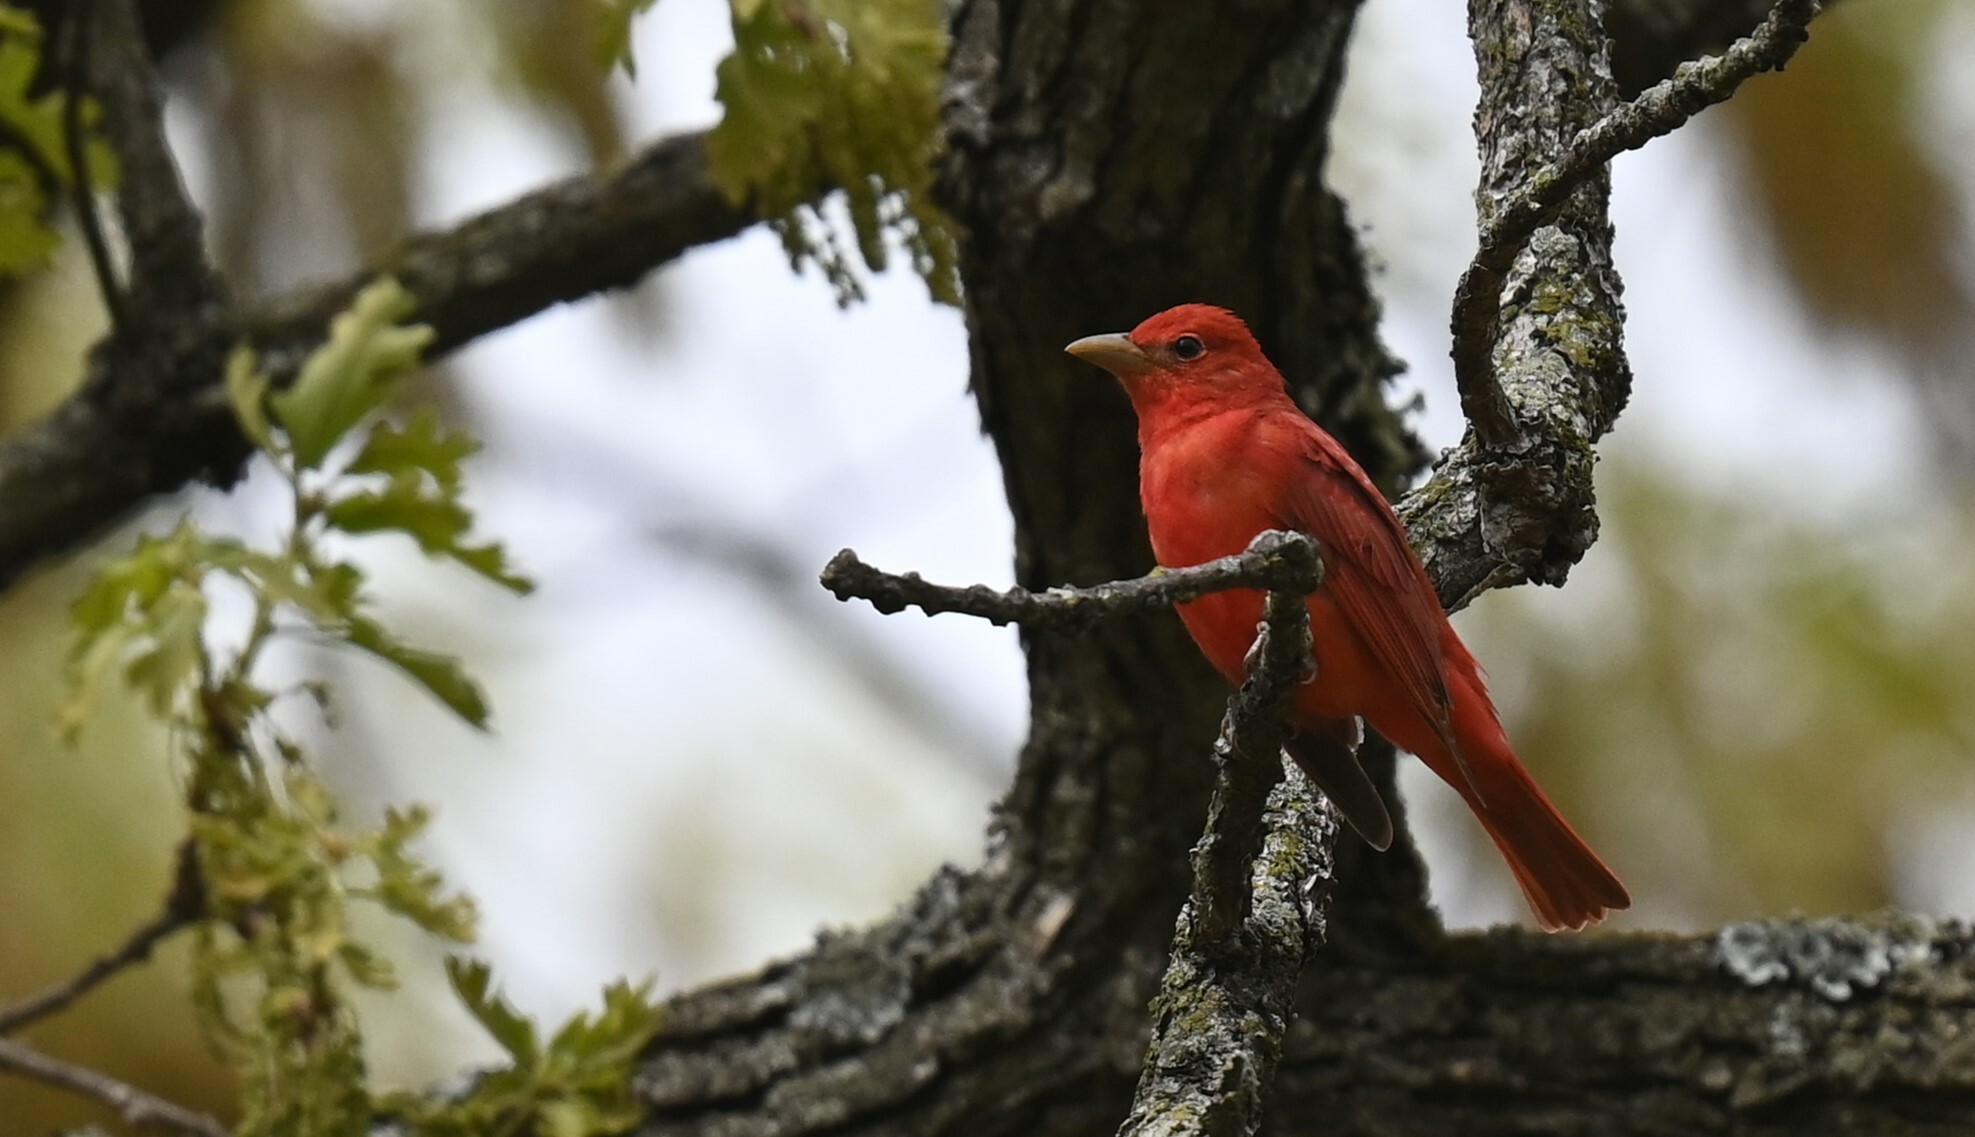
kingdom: Animalia
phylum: Chordata
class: Aves
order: Passeriformes
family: Cardinalidae
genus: Piranga
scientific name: Piranga rubra
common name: Summer tanager
